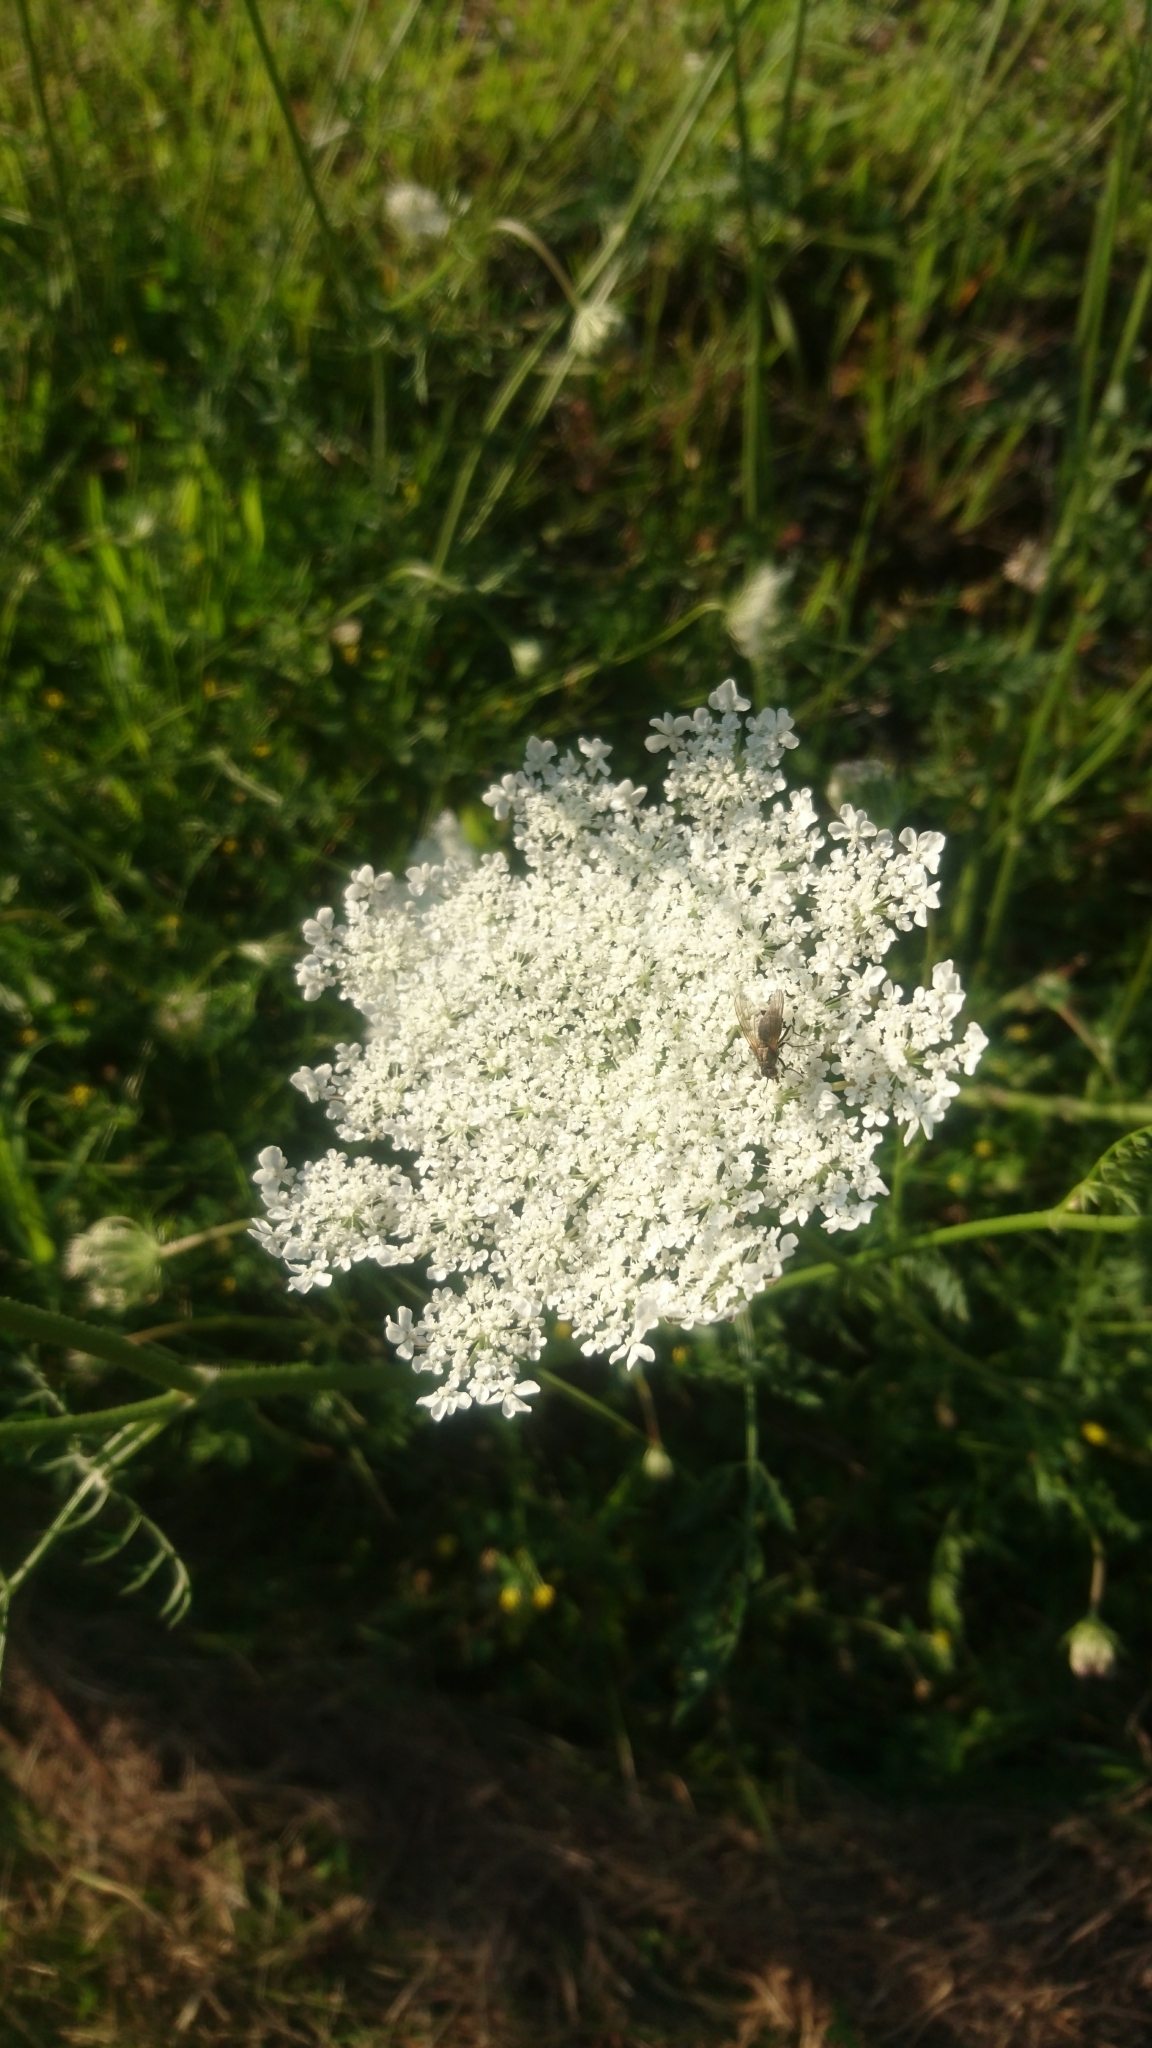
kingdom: Plantae
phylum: Tracheophyta
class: Magnoliopsida
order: Apiales
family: Apiaceae
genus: Daucus
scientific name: Daucus carota
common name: Wild carrot
